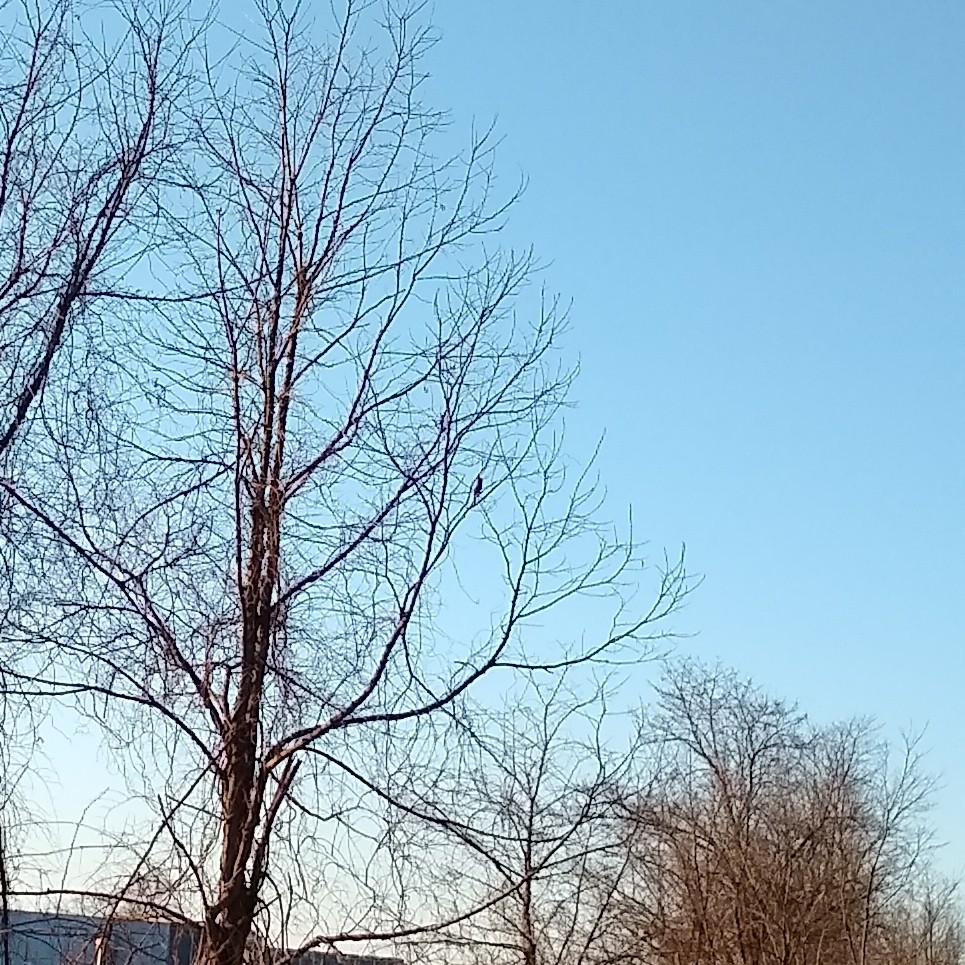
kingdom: Animalia
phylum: Chordata
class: Aves
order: Passeriformes
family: Cardinalidae
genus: Cardinalis
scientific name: Cardinalis cardinalis
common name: Northern cardinal
